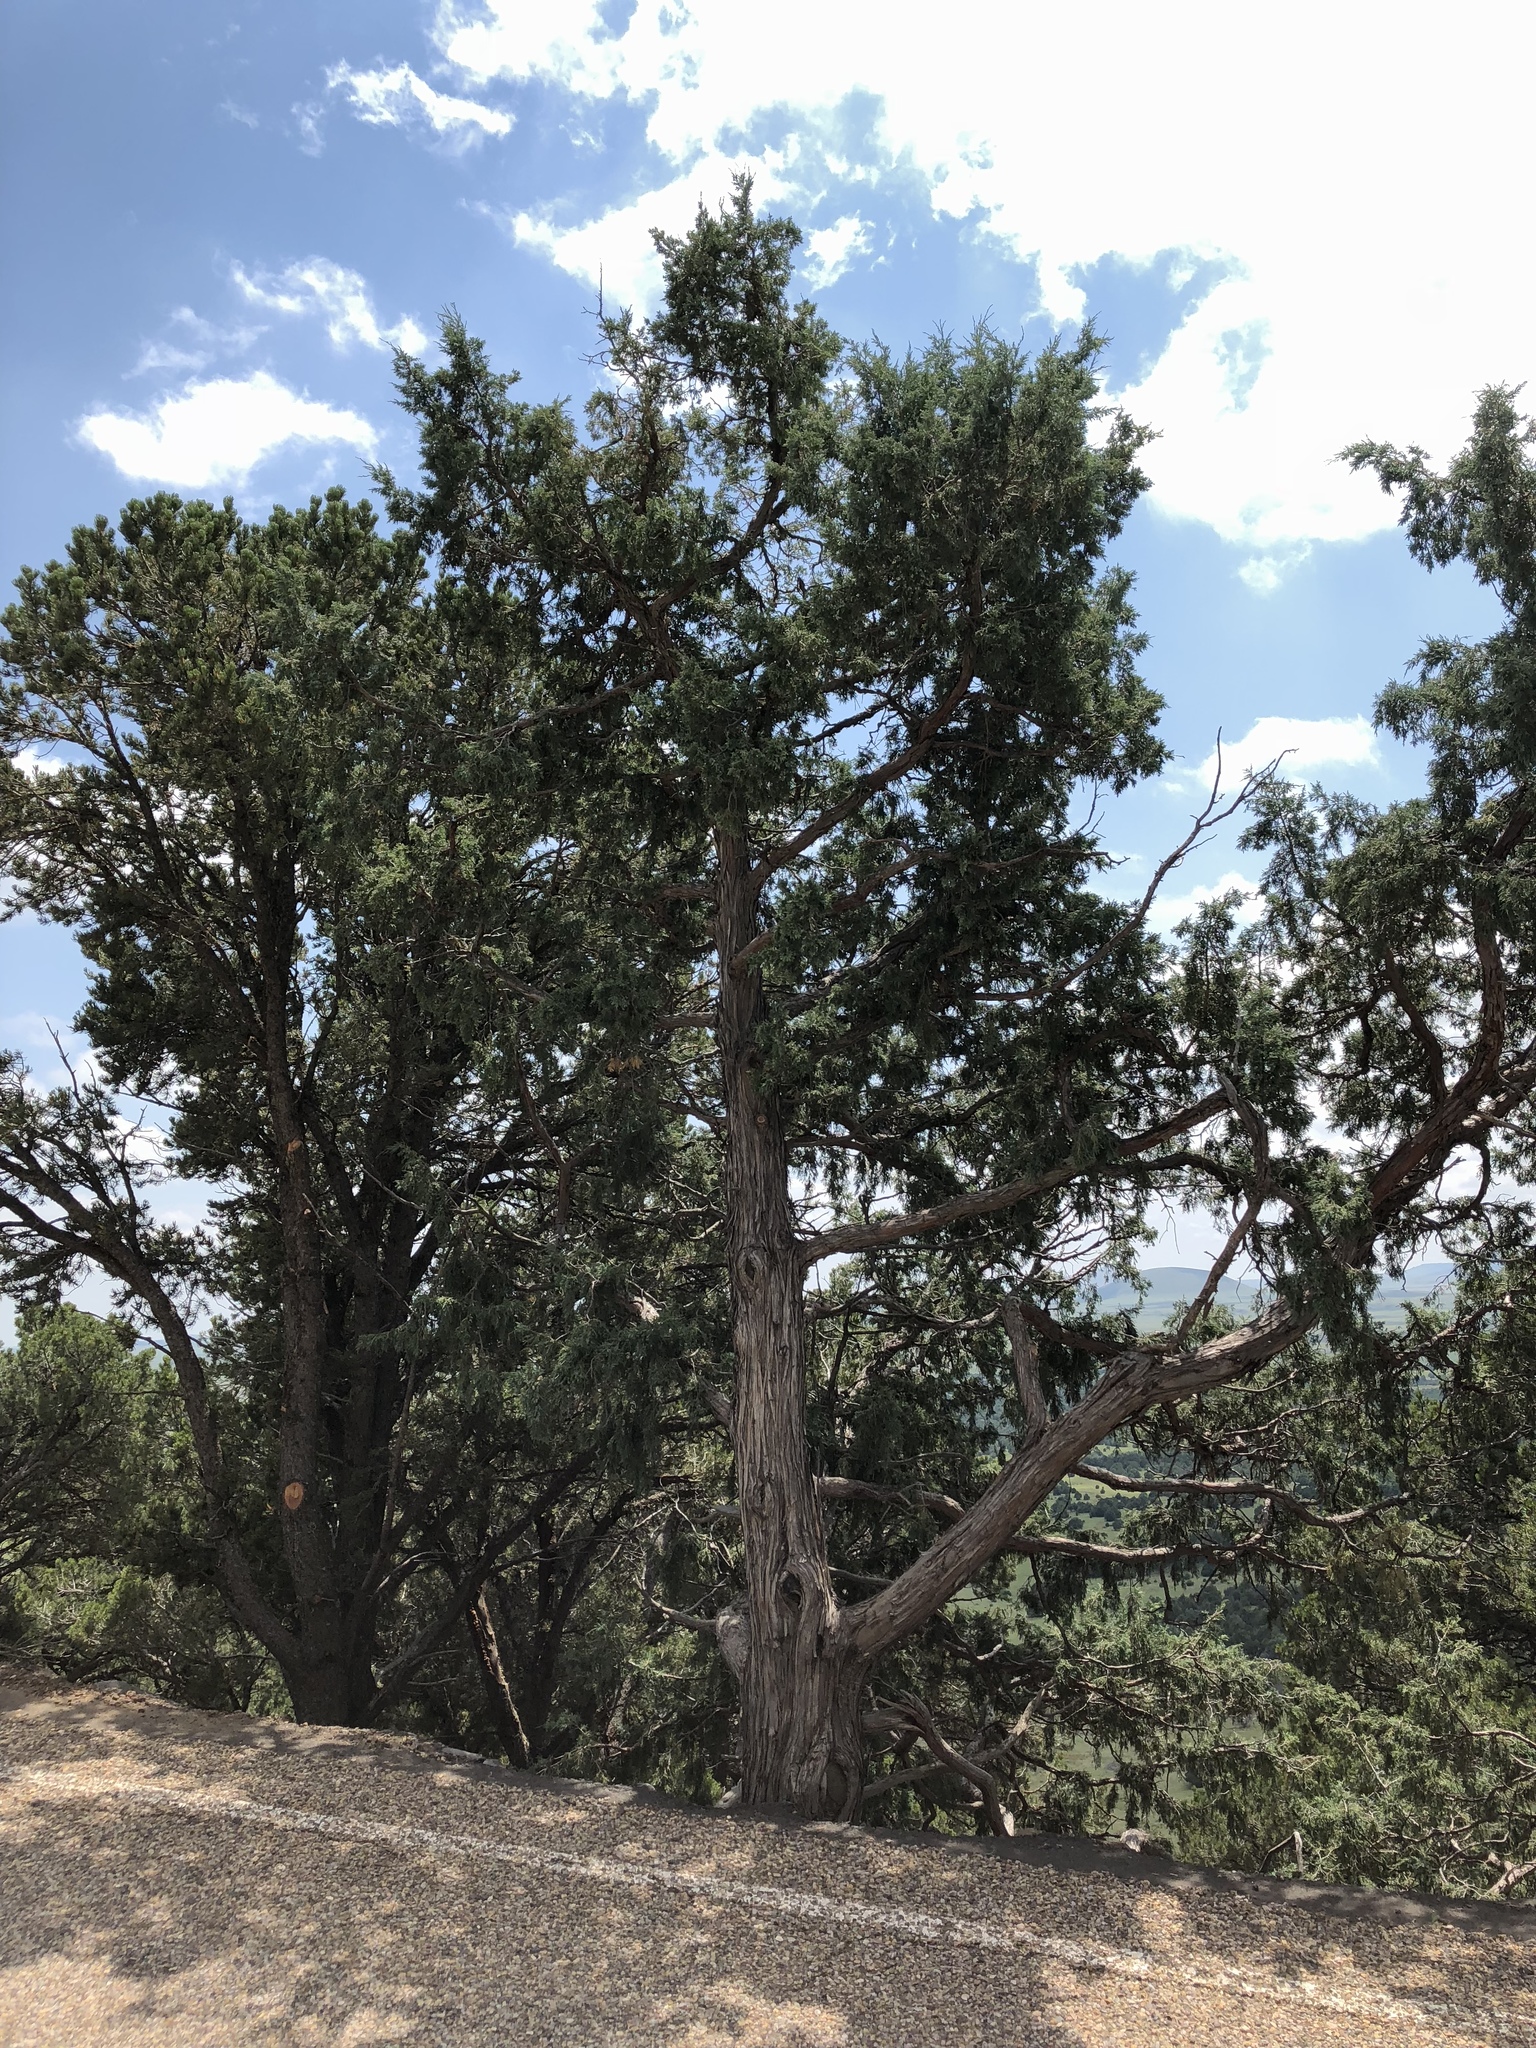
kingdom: Plantae
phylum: Tracheophyta
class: Pinopsida
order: Pinales
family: Cupressaceae
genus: Juniperus
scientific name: Juniperus scopulorum
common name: Rocky mountain juniper
